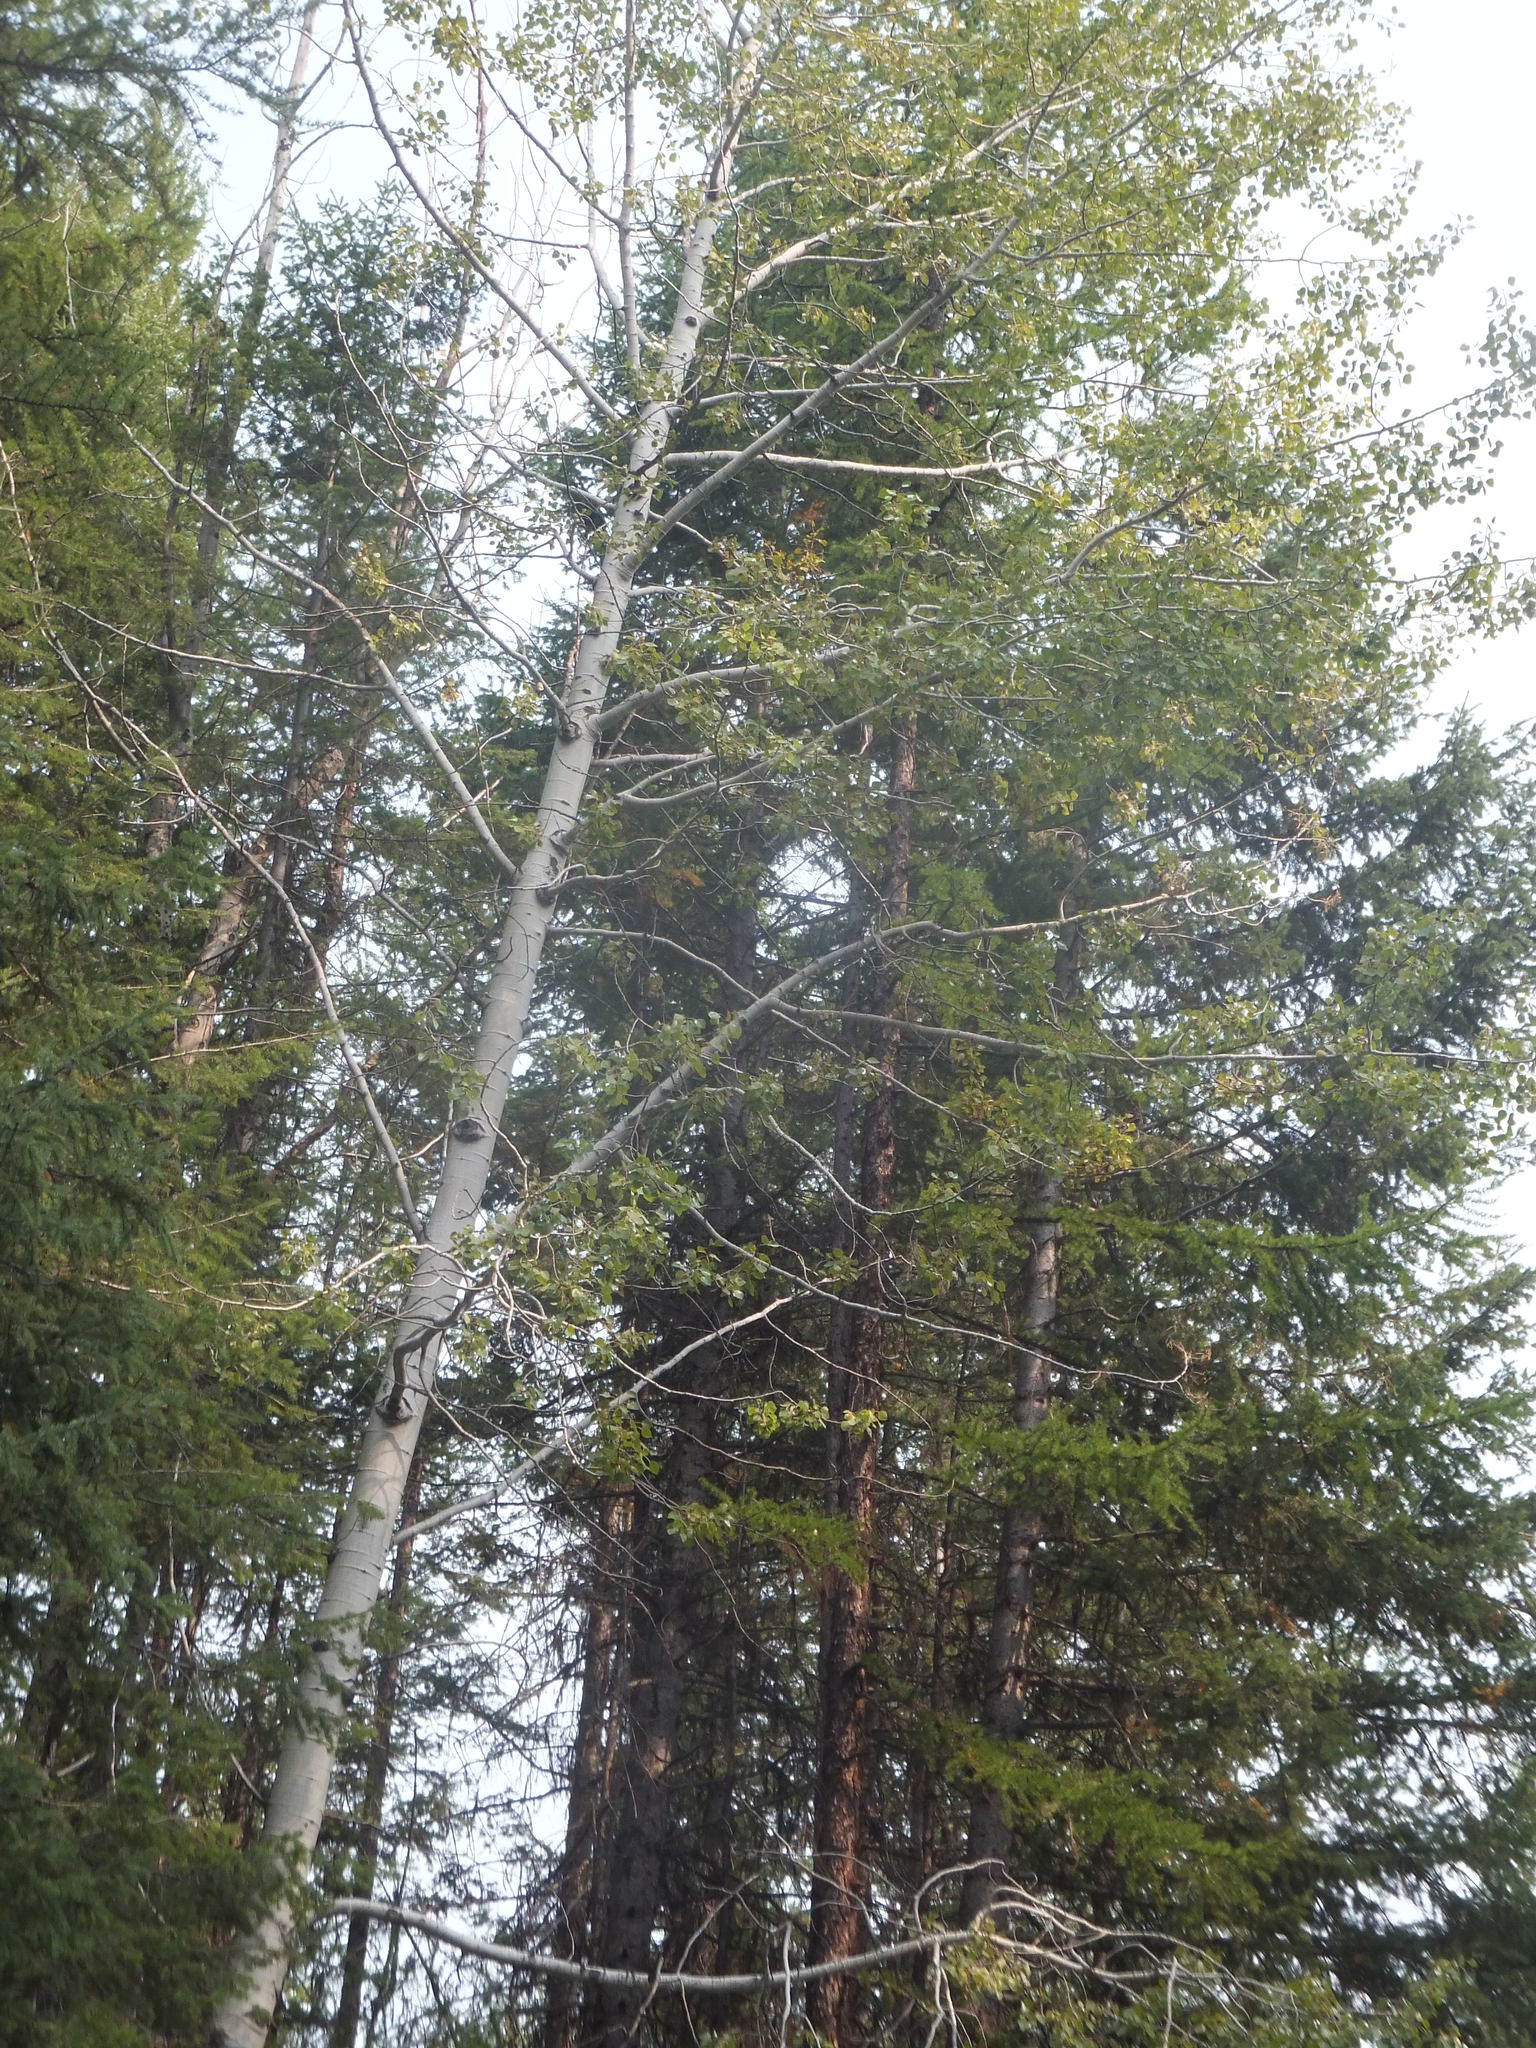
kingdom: Plantae
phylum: Tracheophyta
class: Magnoliopsida
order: Malpighiales
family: Salicaceae
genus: Populus
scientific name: Populus tremuloides
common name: Quaking aspen
